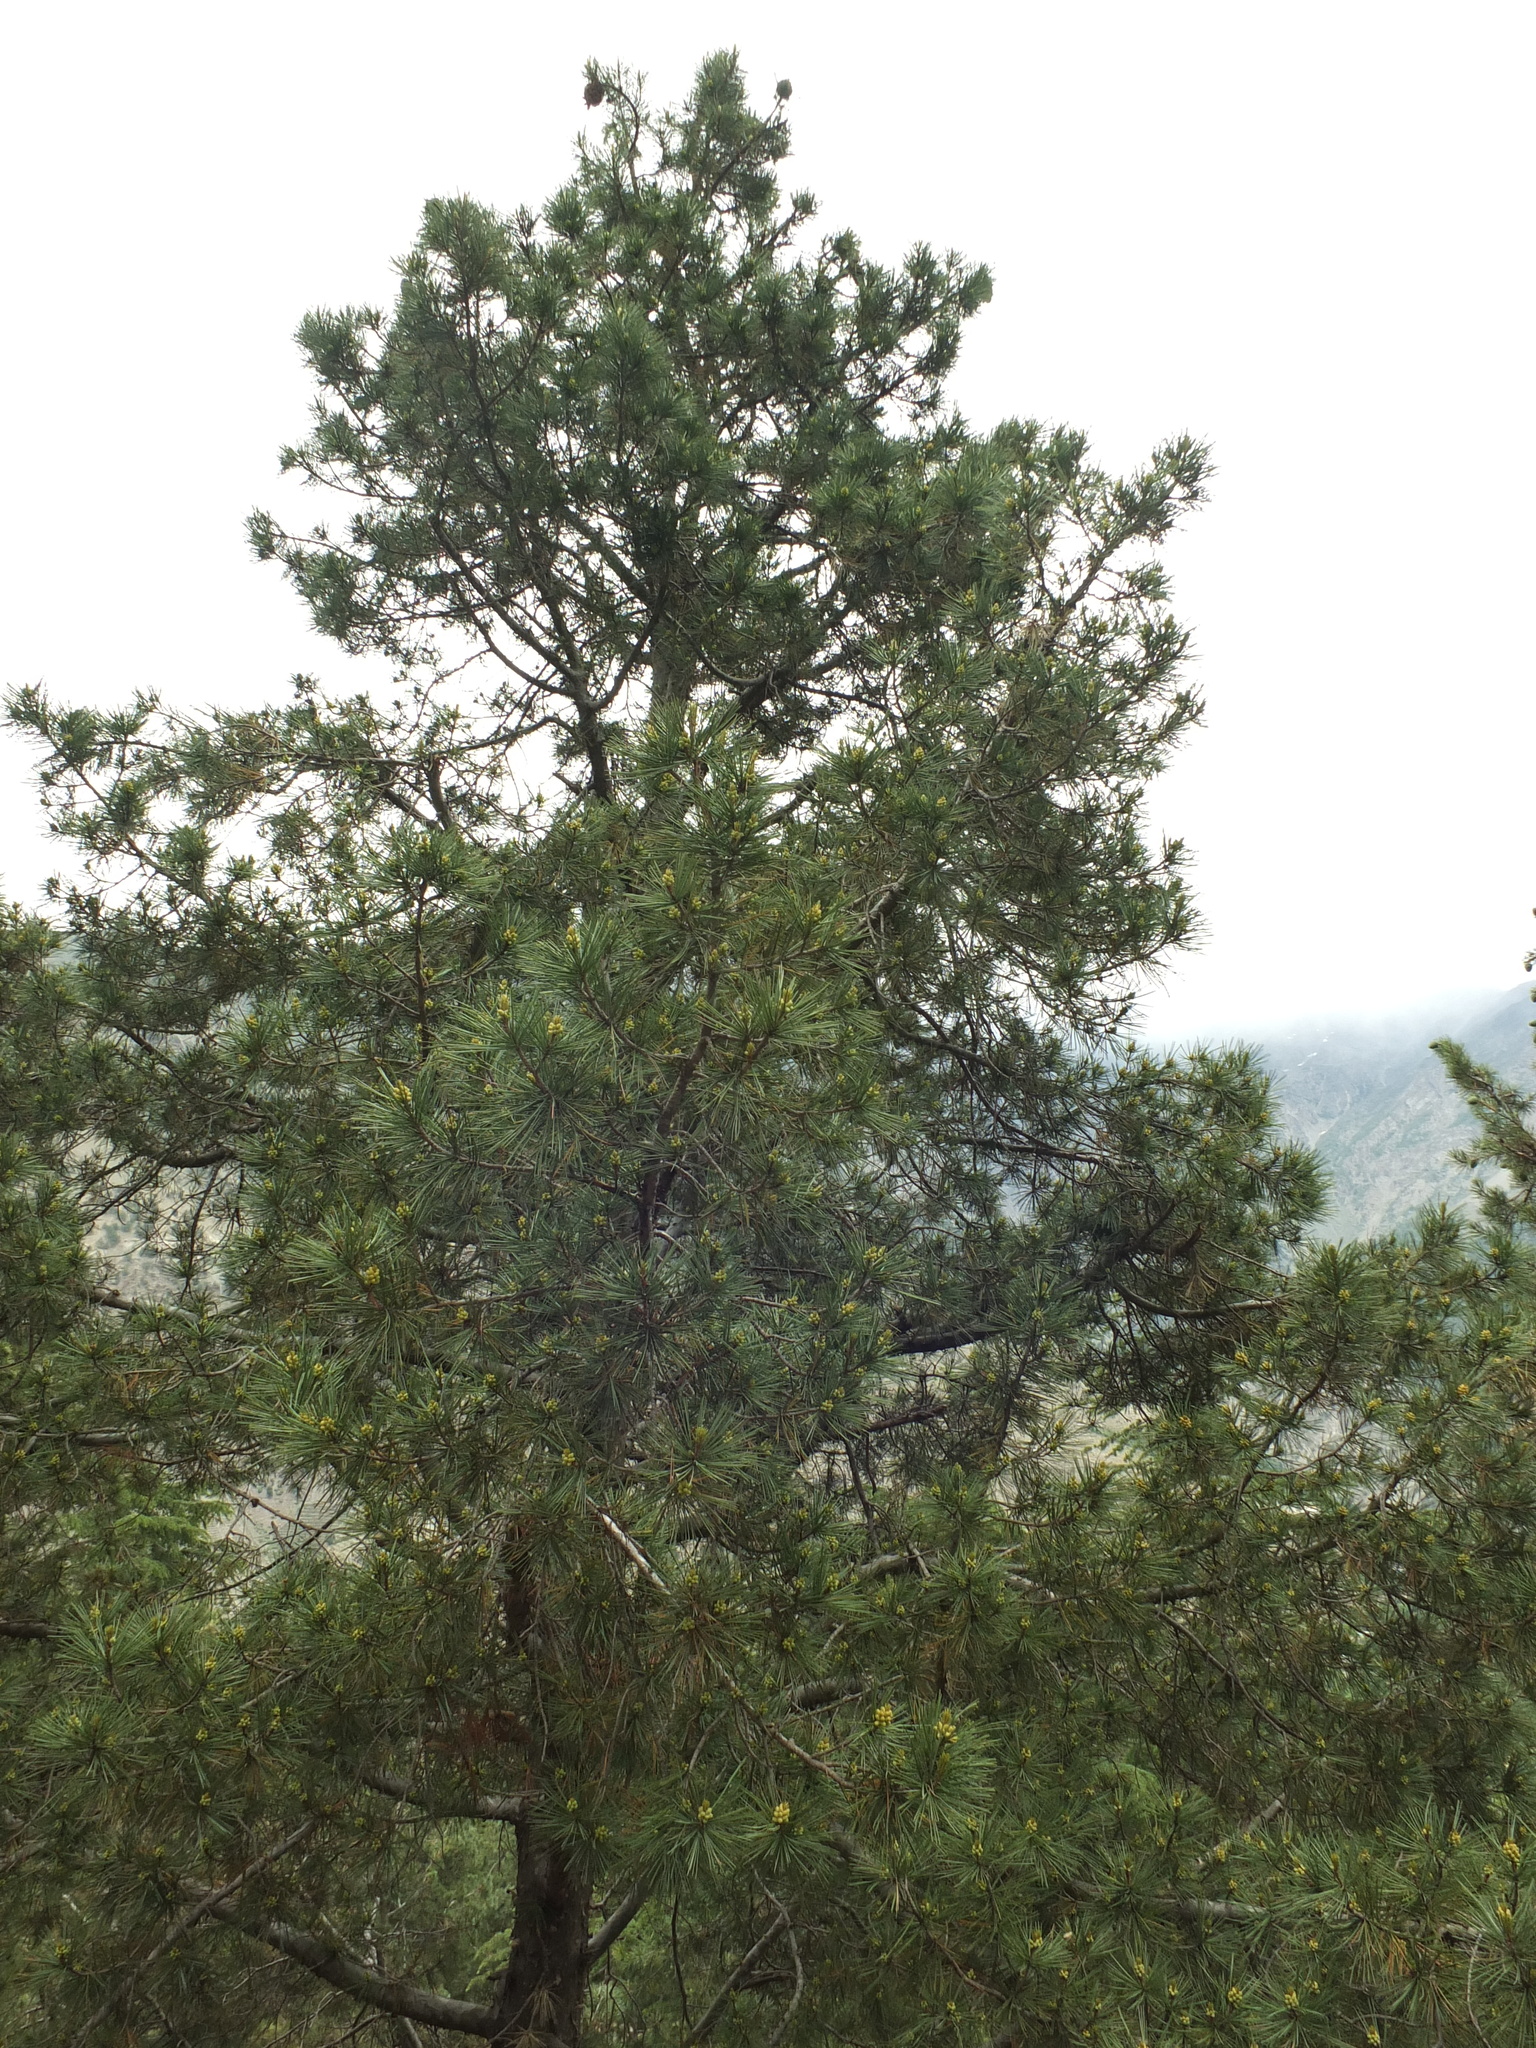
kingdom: Plantae
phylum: Tracheophyta
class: Pinopsida
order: Pinales
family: Pinaceae
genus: Pinus
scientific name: Pinus gerardiana
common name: Chilgoza pine
